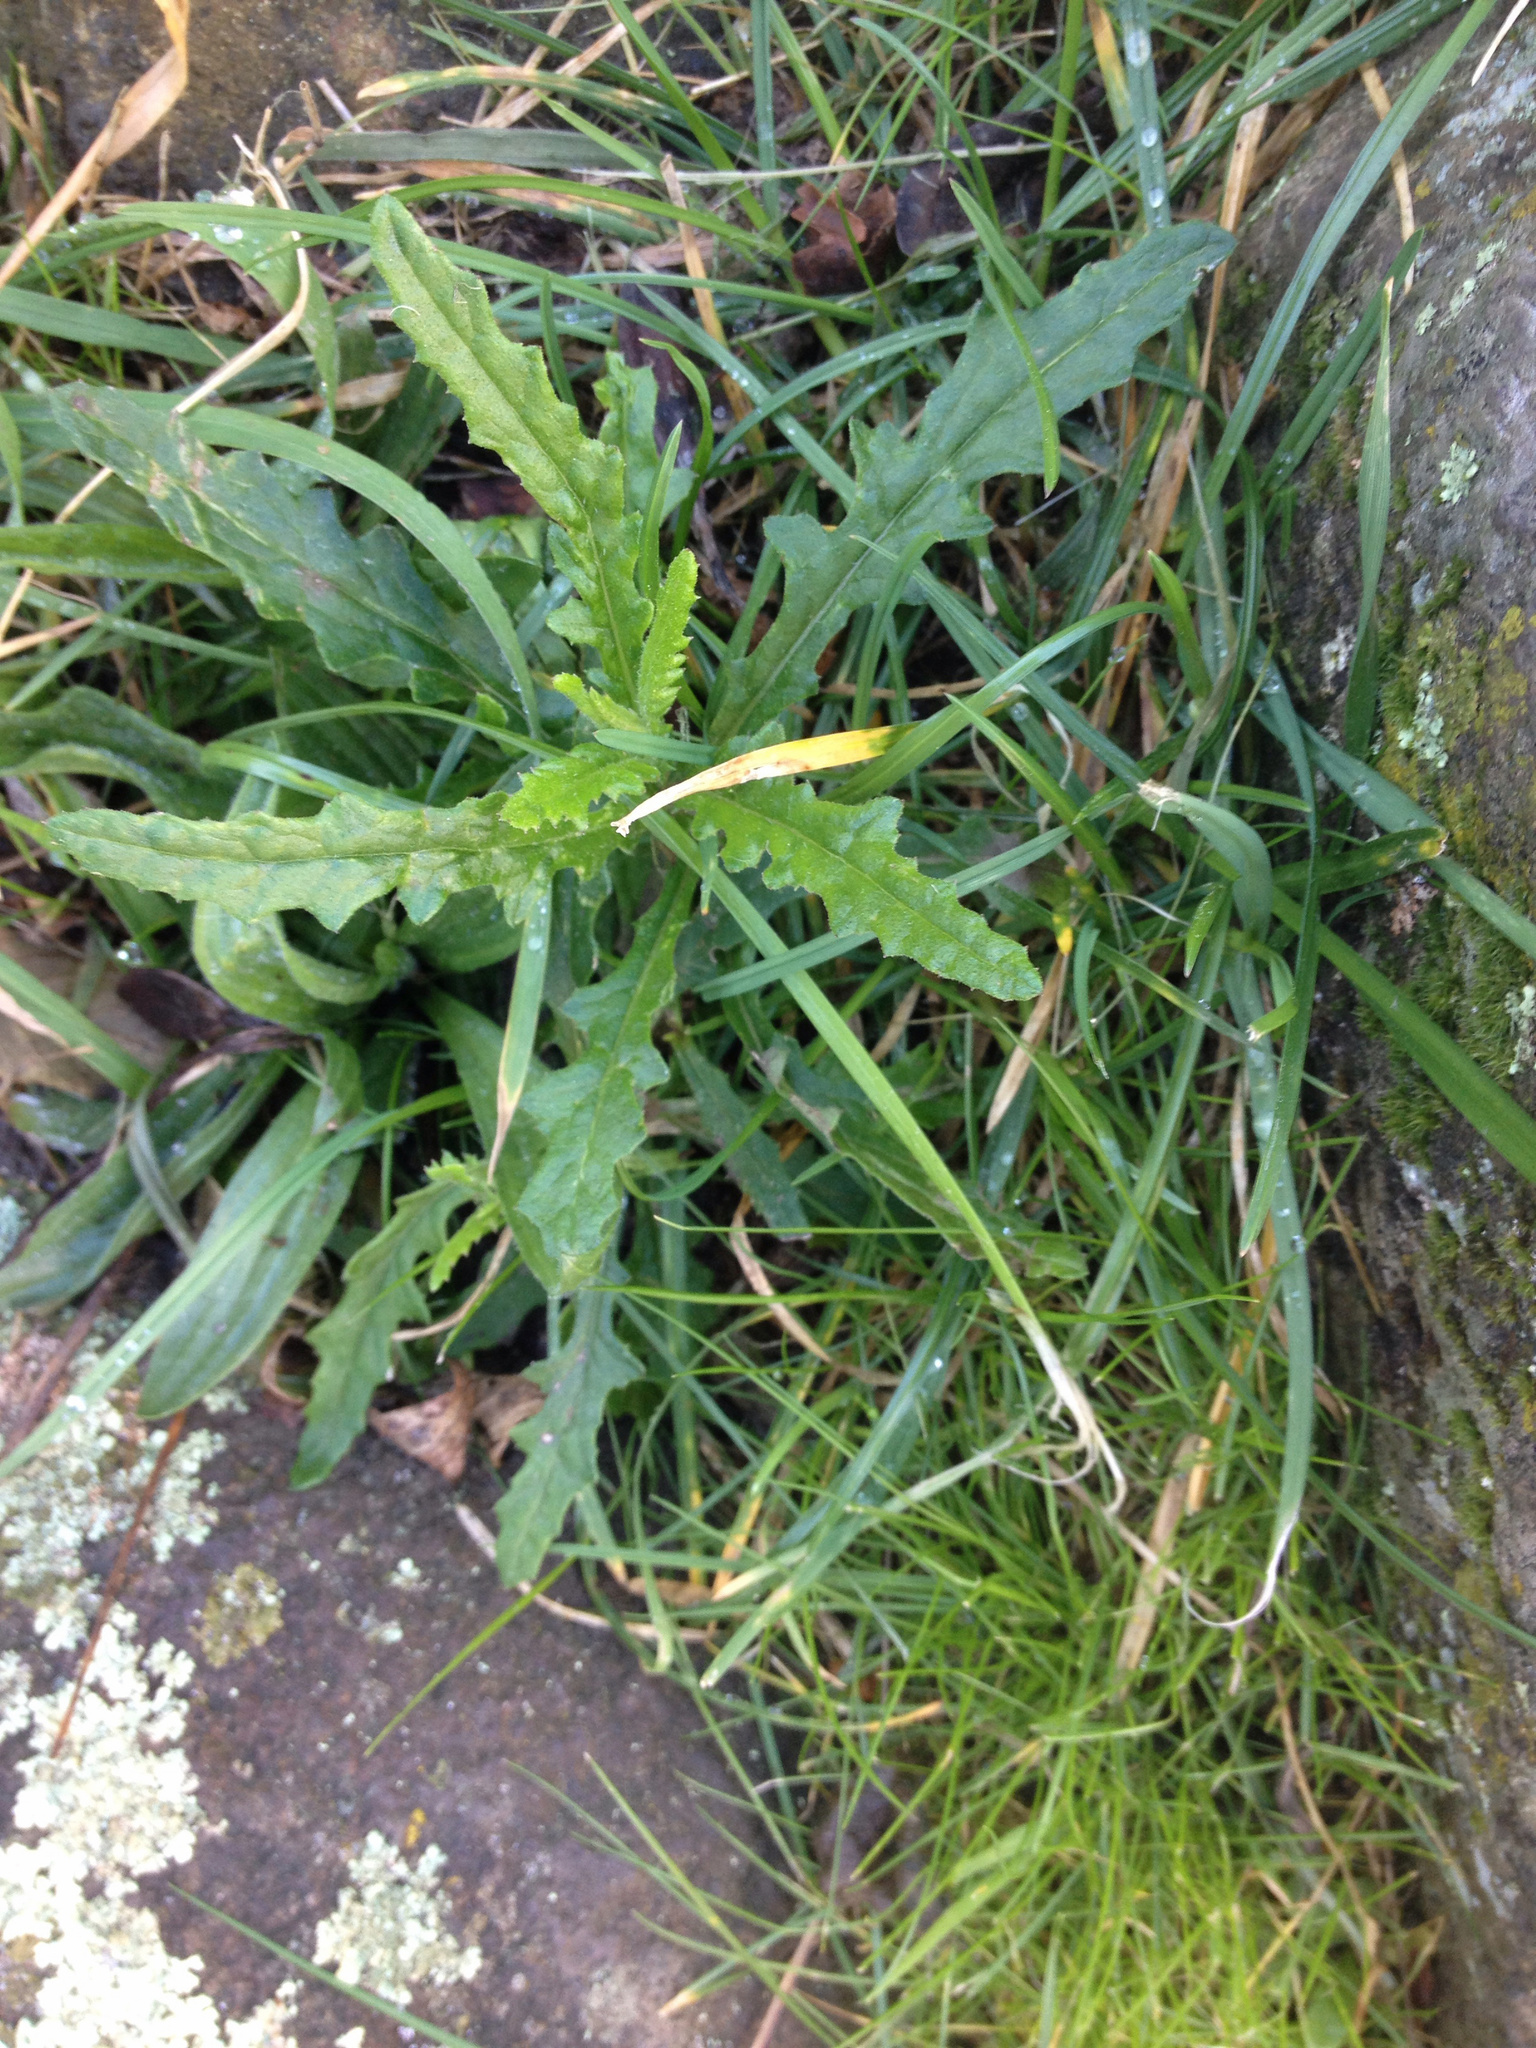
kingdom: Plantae
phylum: Tracheophyta
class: Magnoliopsida
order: Asterales
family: Asteraceae
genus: Senecio
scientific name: Senecio hispidulus
